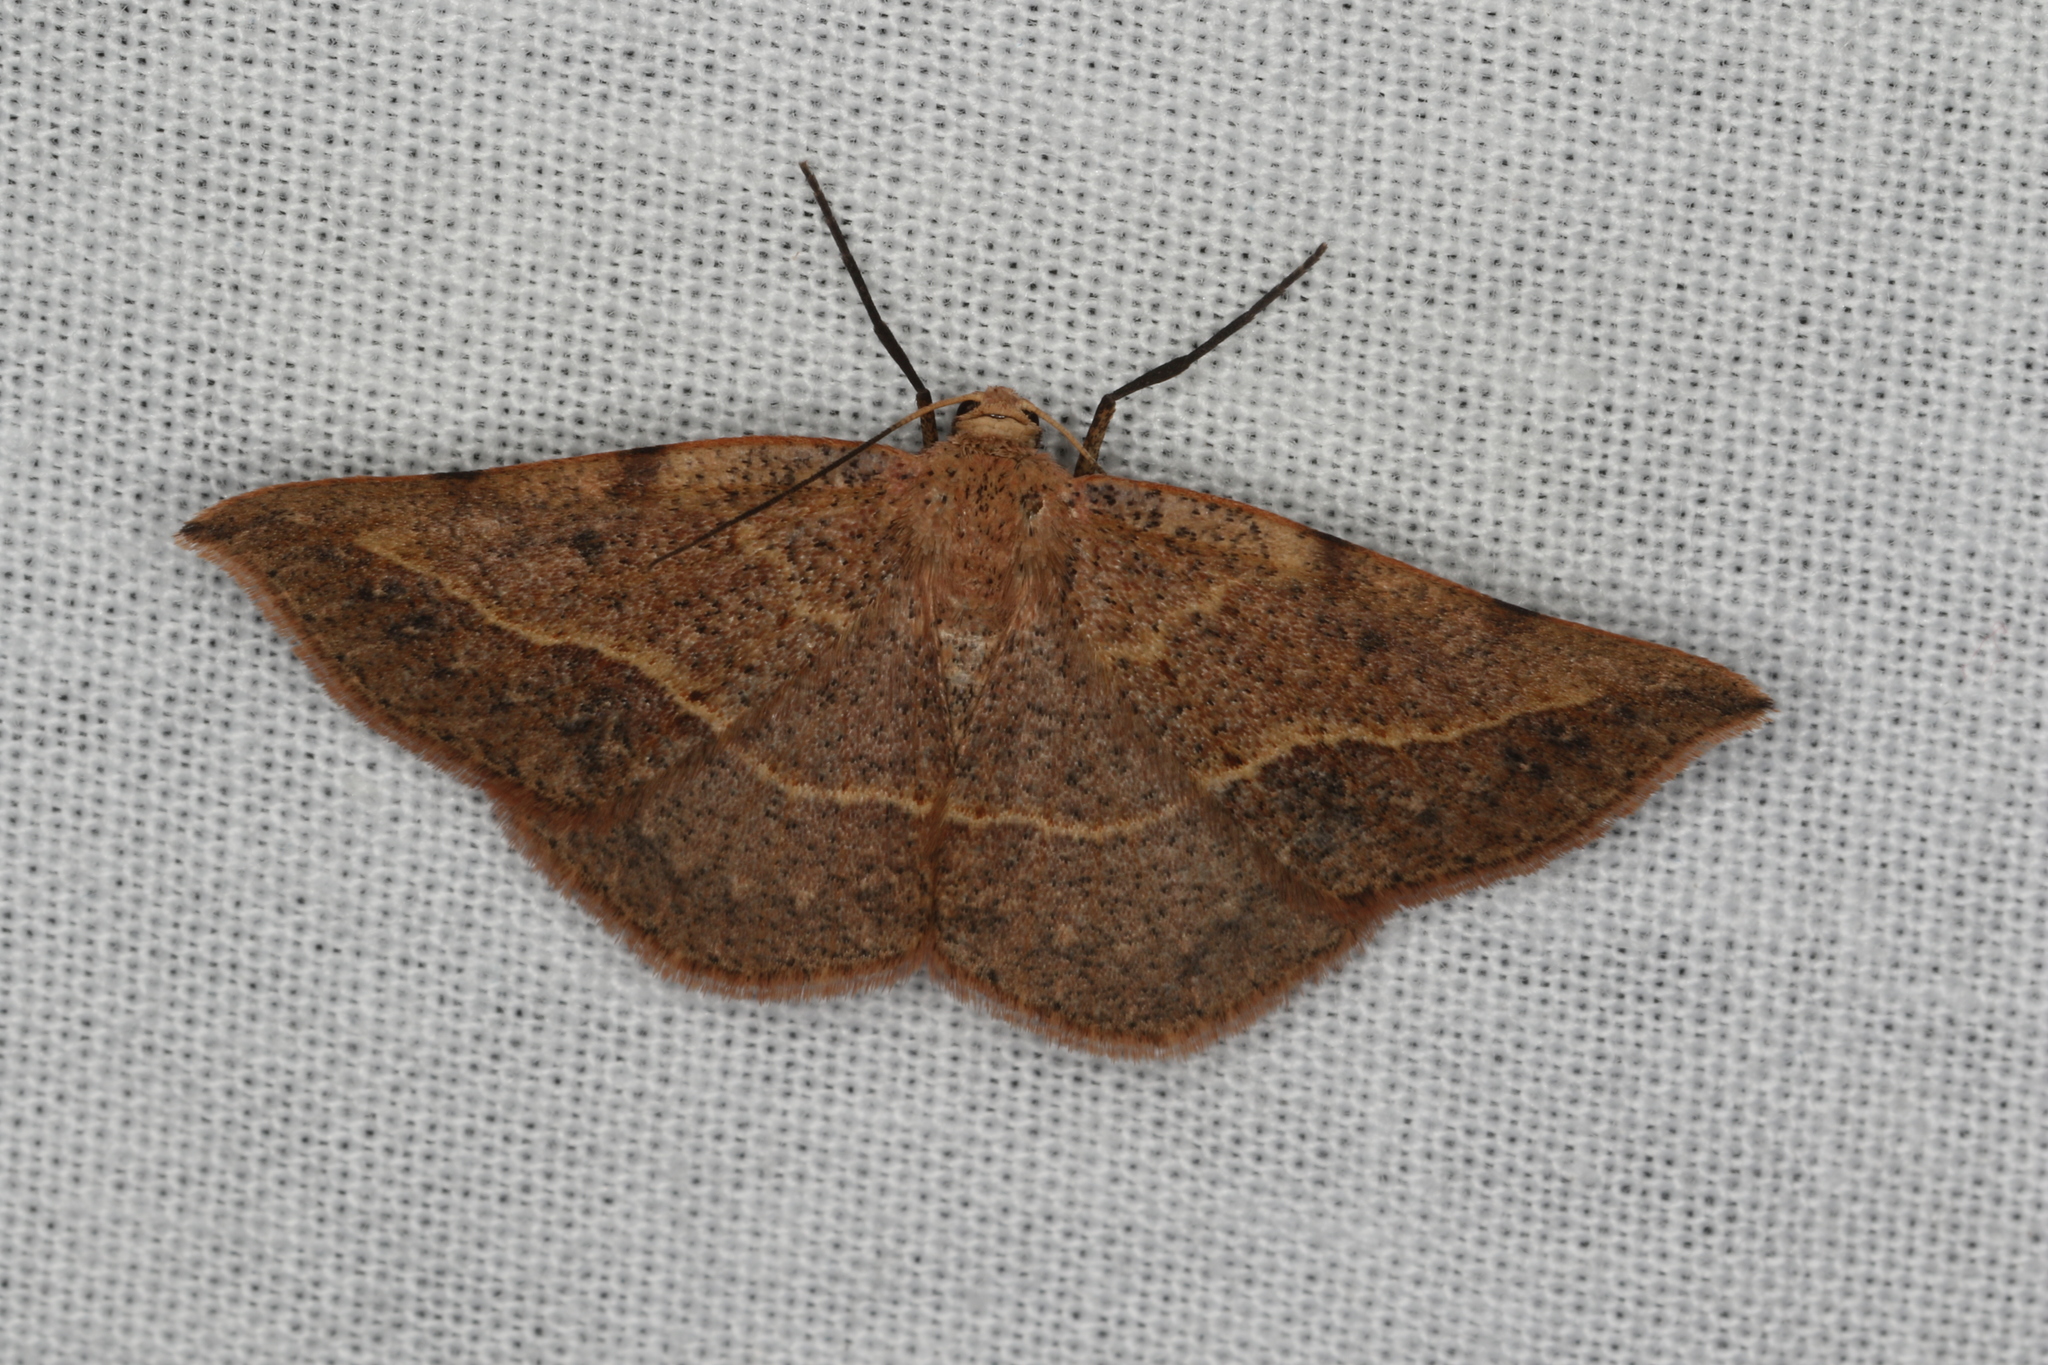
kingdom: Animalia
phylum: Arthropoda
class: Insecta
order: Lepidoptera
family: Geometridae
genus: Taxeotis
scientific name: Taxeotis epigaea
